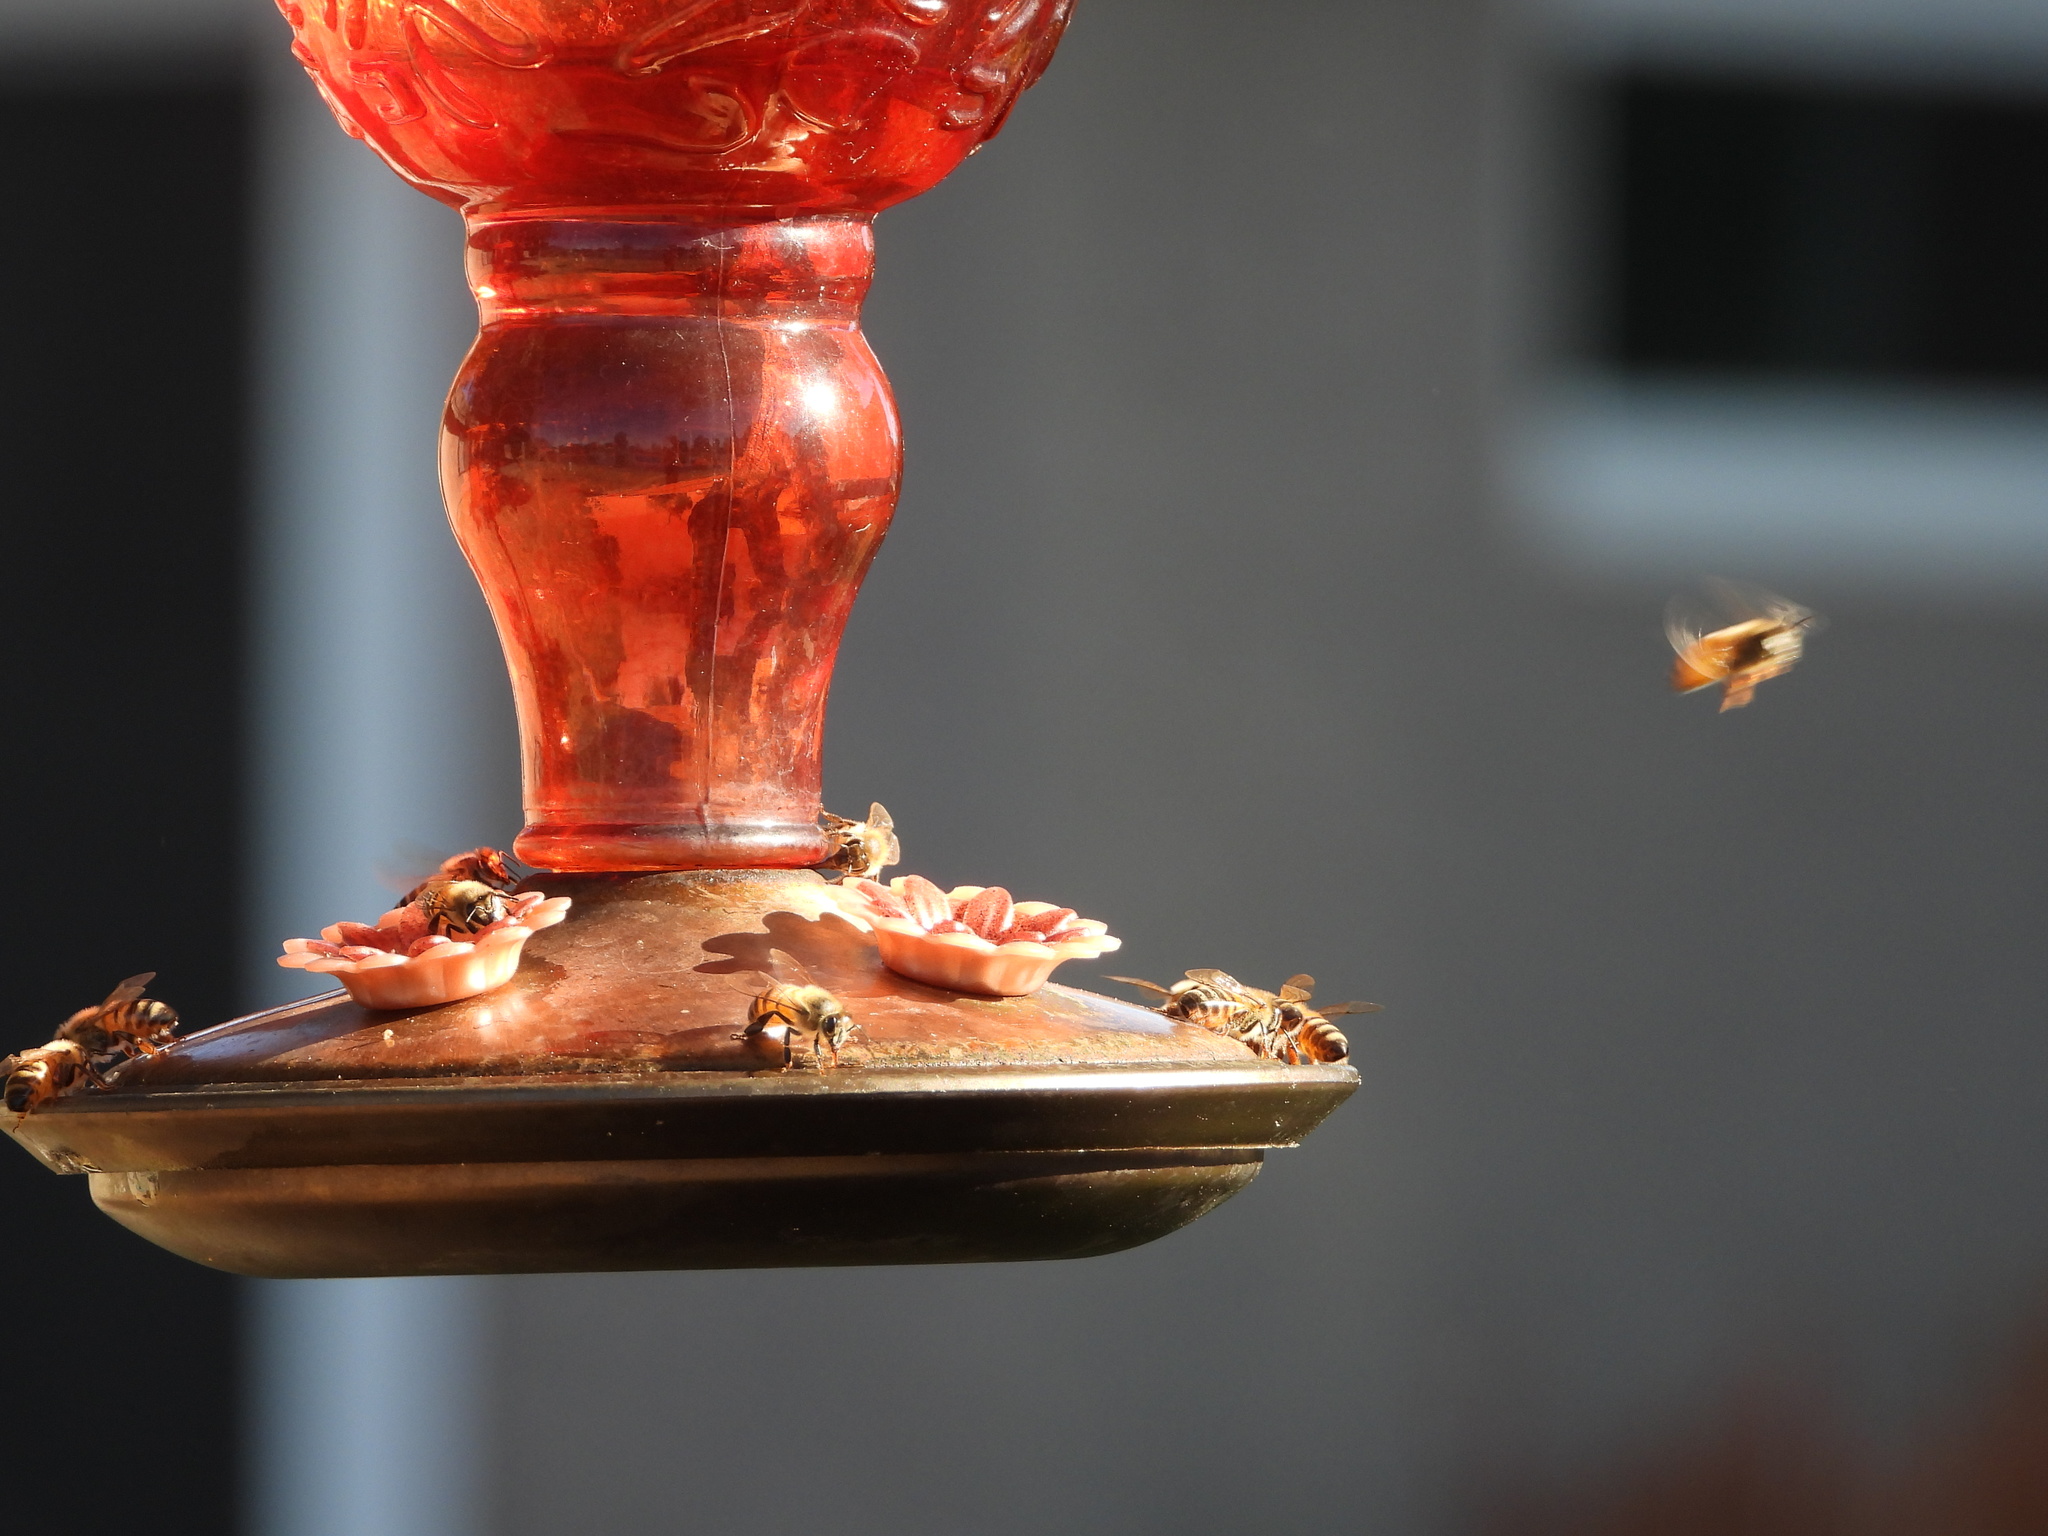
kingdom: Animalia
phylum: Arthropoda
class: Insecta
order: Hymenoptera
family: Apidae
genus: Apis
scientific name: Apis mellifera
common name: Honey bee
